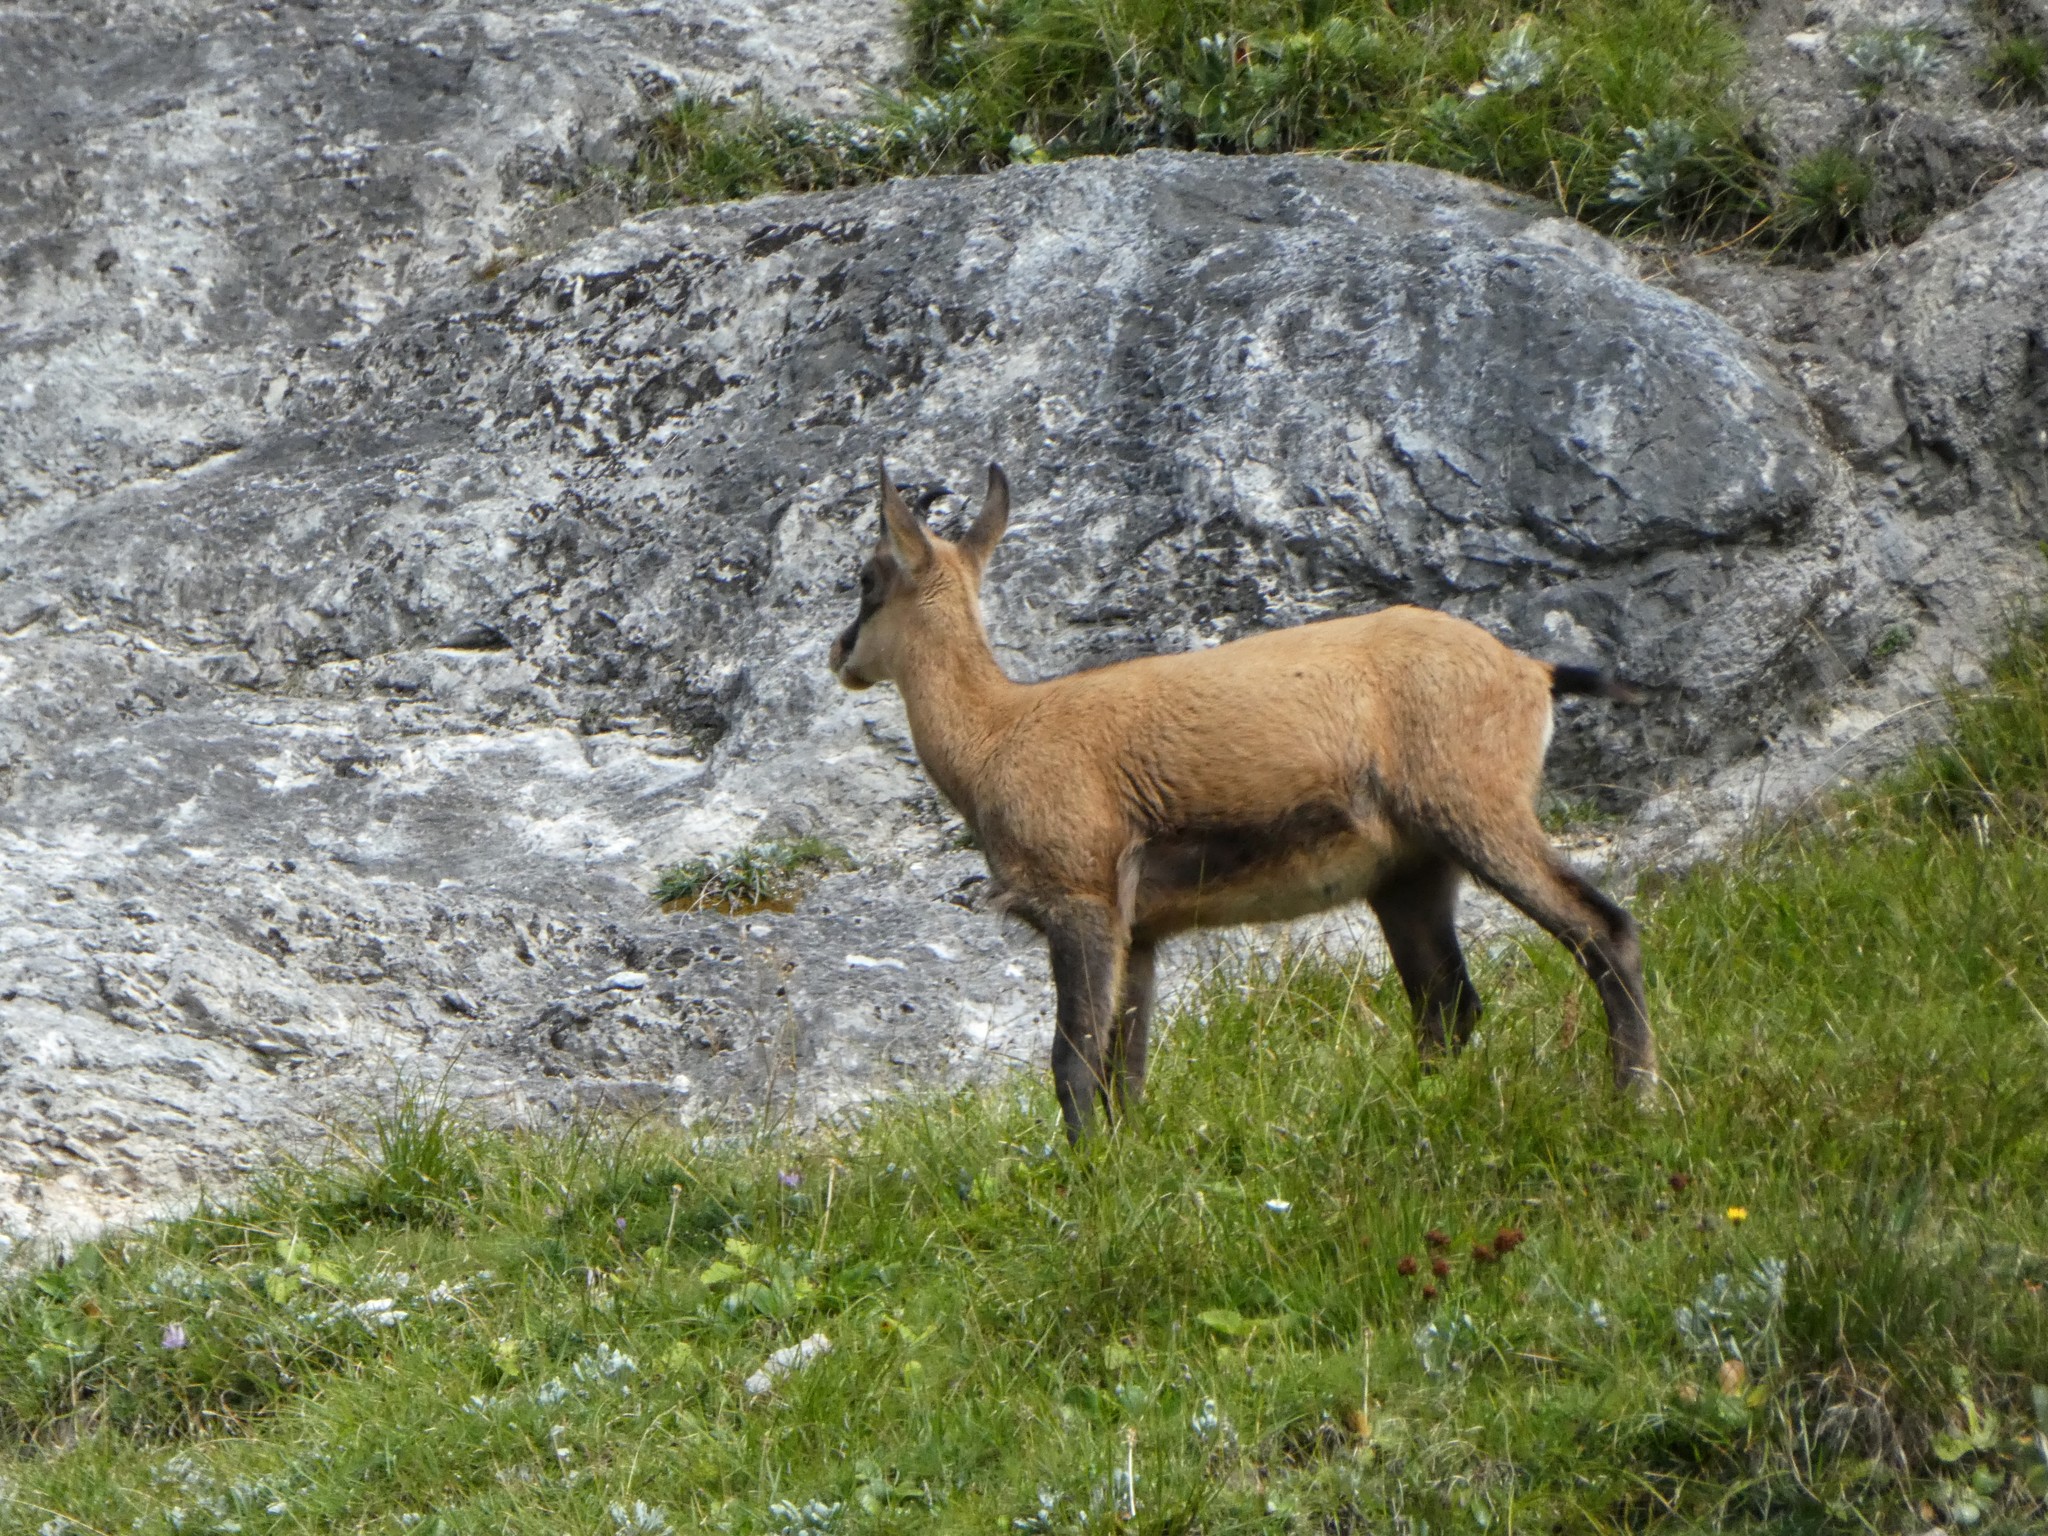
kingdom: Animalia
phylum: Chordata
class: Mammalia
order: Artiodactyla
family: Bovidae
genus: Rupicapra
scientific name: Rupicapra rupicapra
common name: Chamois
